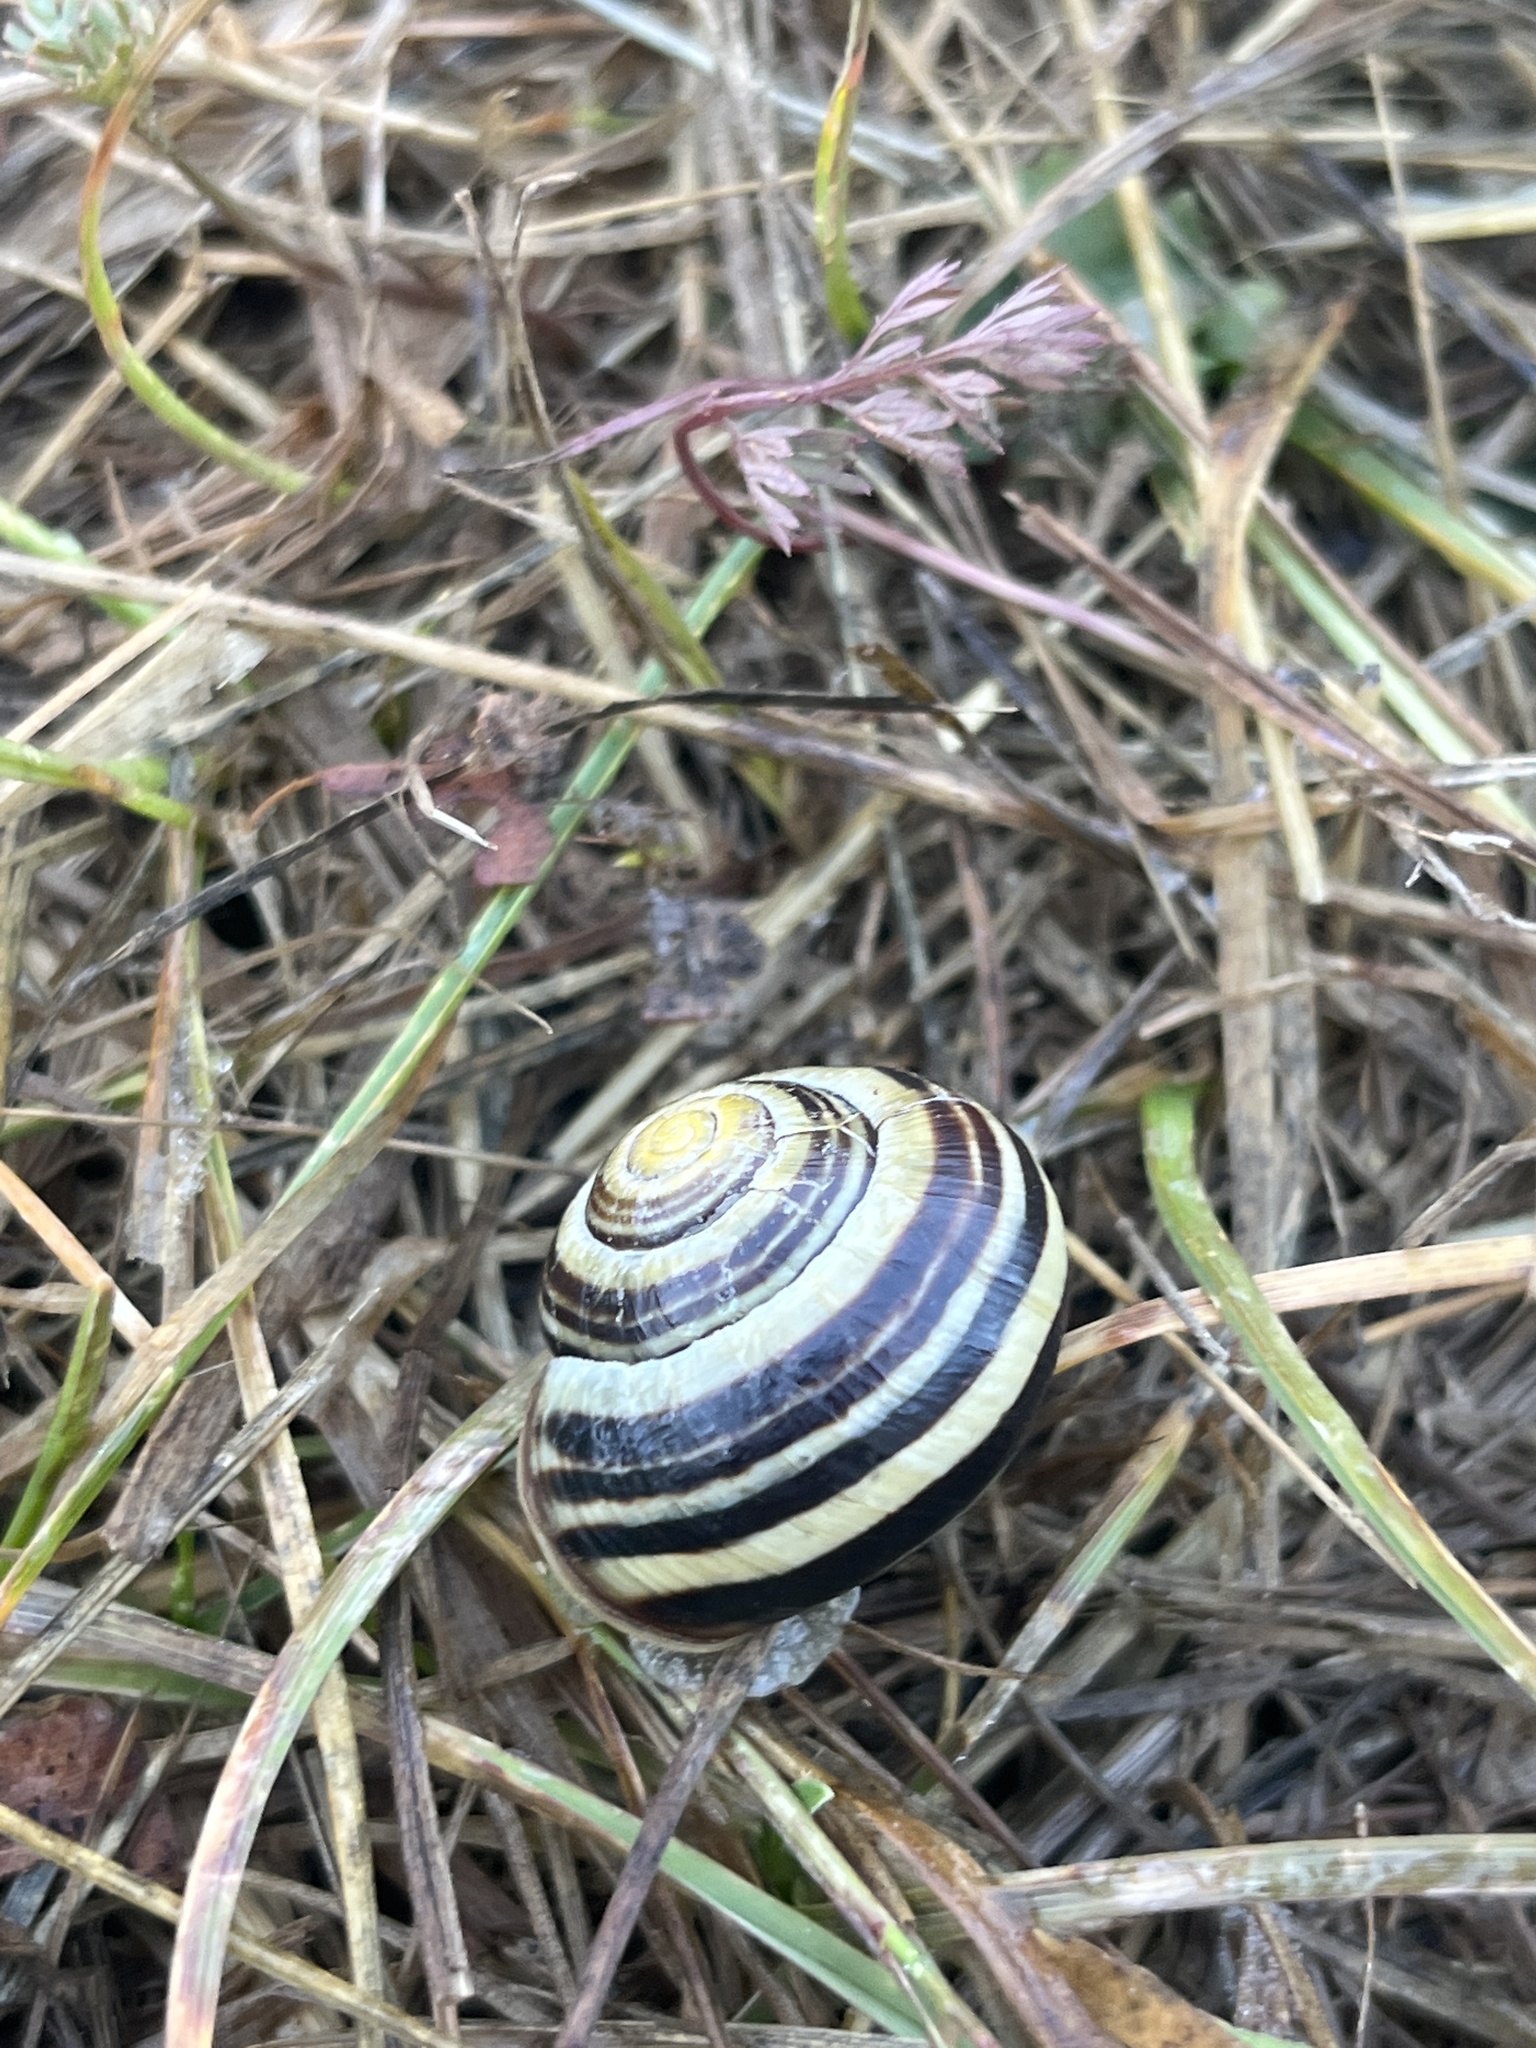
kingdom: Animalia
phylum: Mollusca
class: Gastropoda
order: Stylommatophora
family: Helicidae
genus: Cepaea
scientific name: Cepaea nemoralis
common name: Grovesnail
